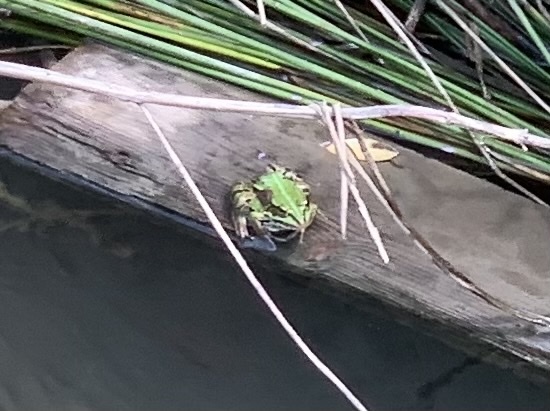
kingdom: Animalia
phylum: Chordata
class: Amphibia
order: Anura
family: Ranidae
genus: Pelophylax
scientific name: Pelophylax
